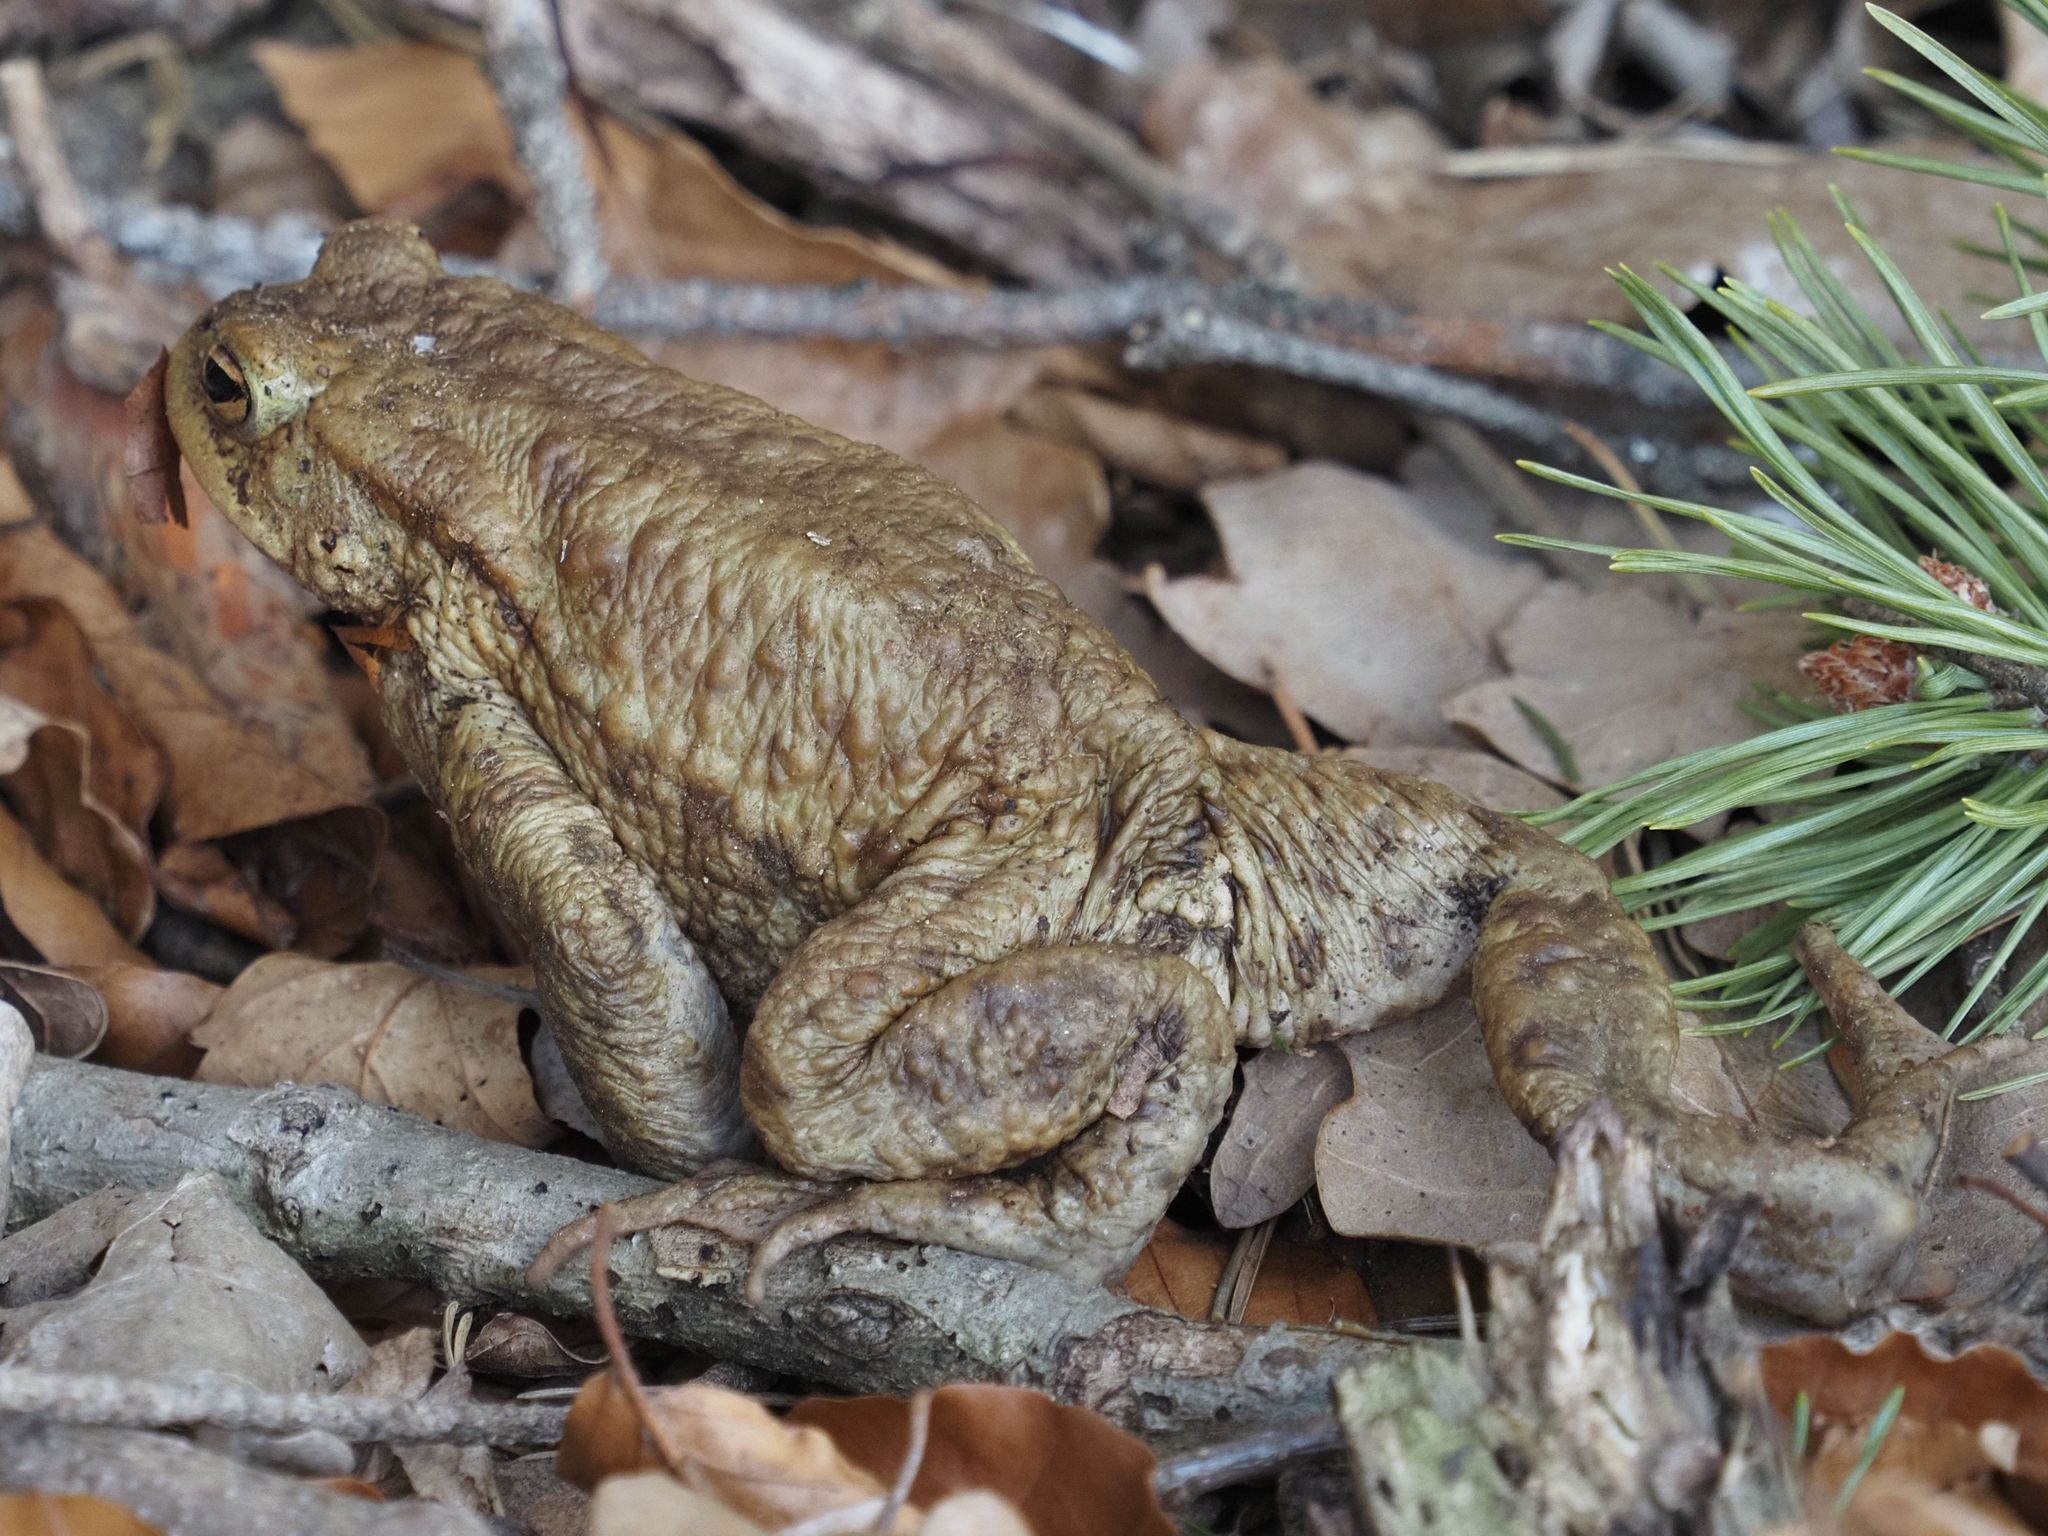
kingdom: Animalia
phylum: Chordata
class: Amphibia
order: Anura
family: Bufonidae
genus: Bufo
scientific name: Bufo bufo
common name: Common toad
